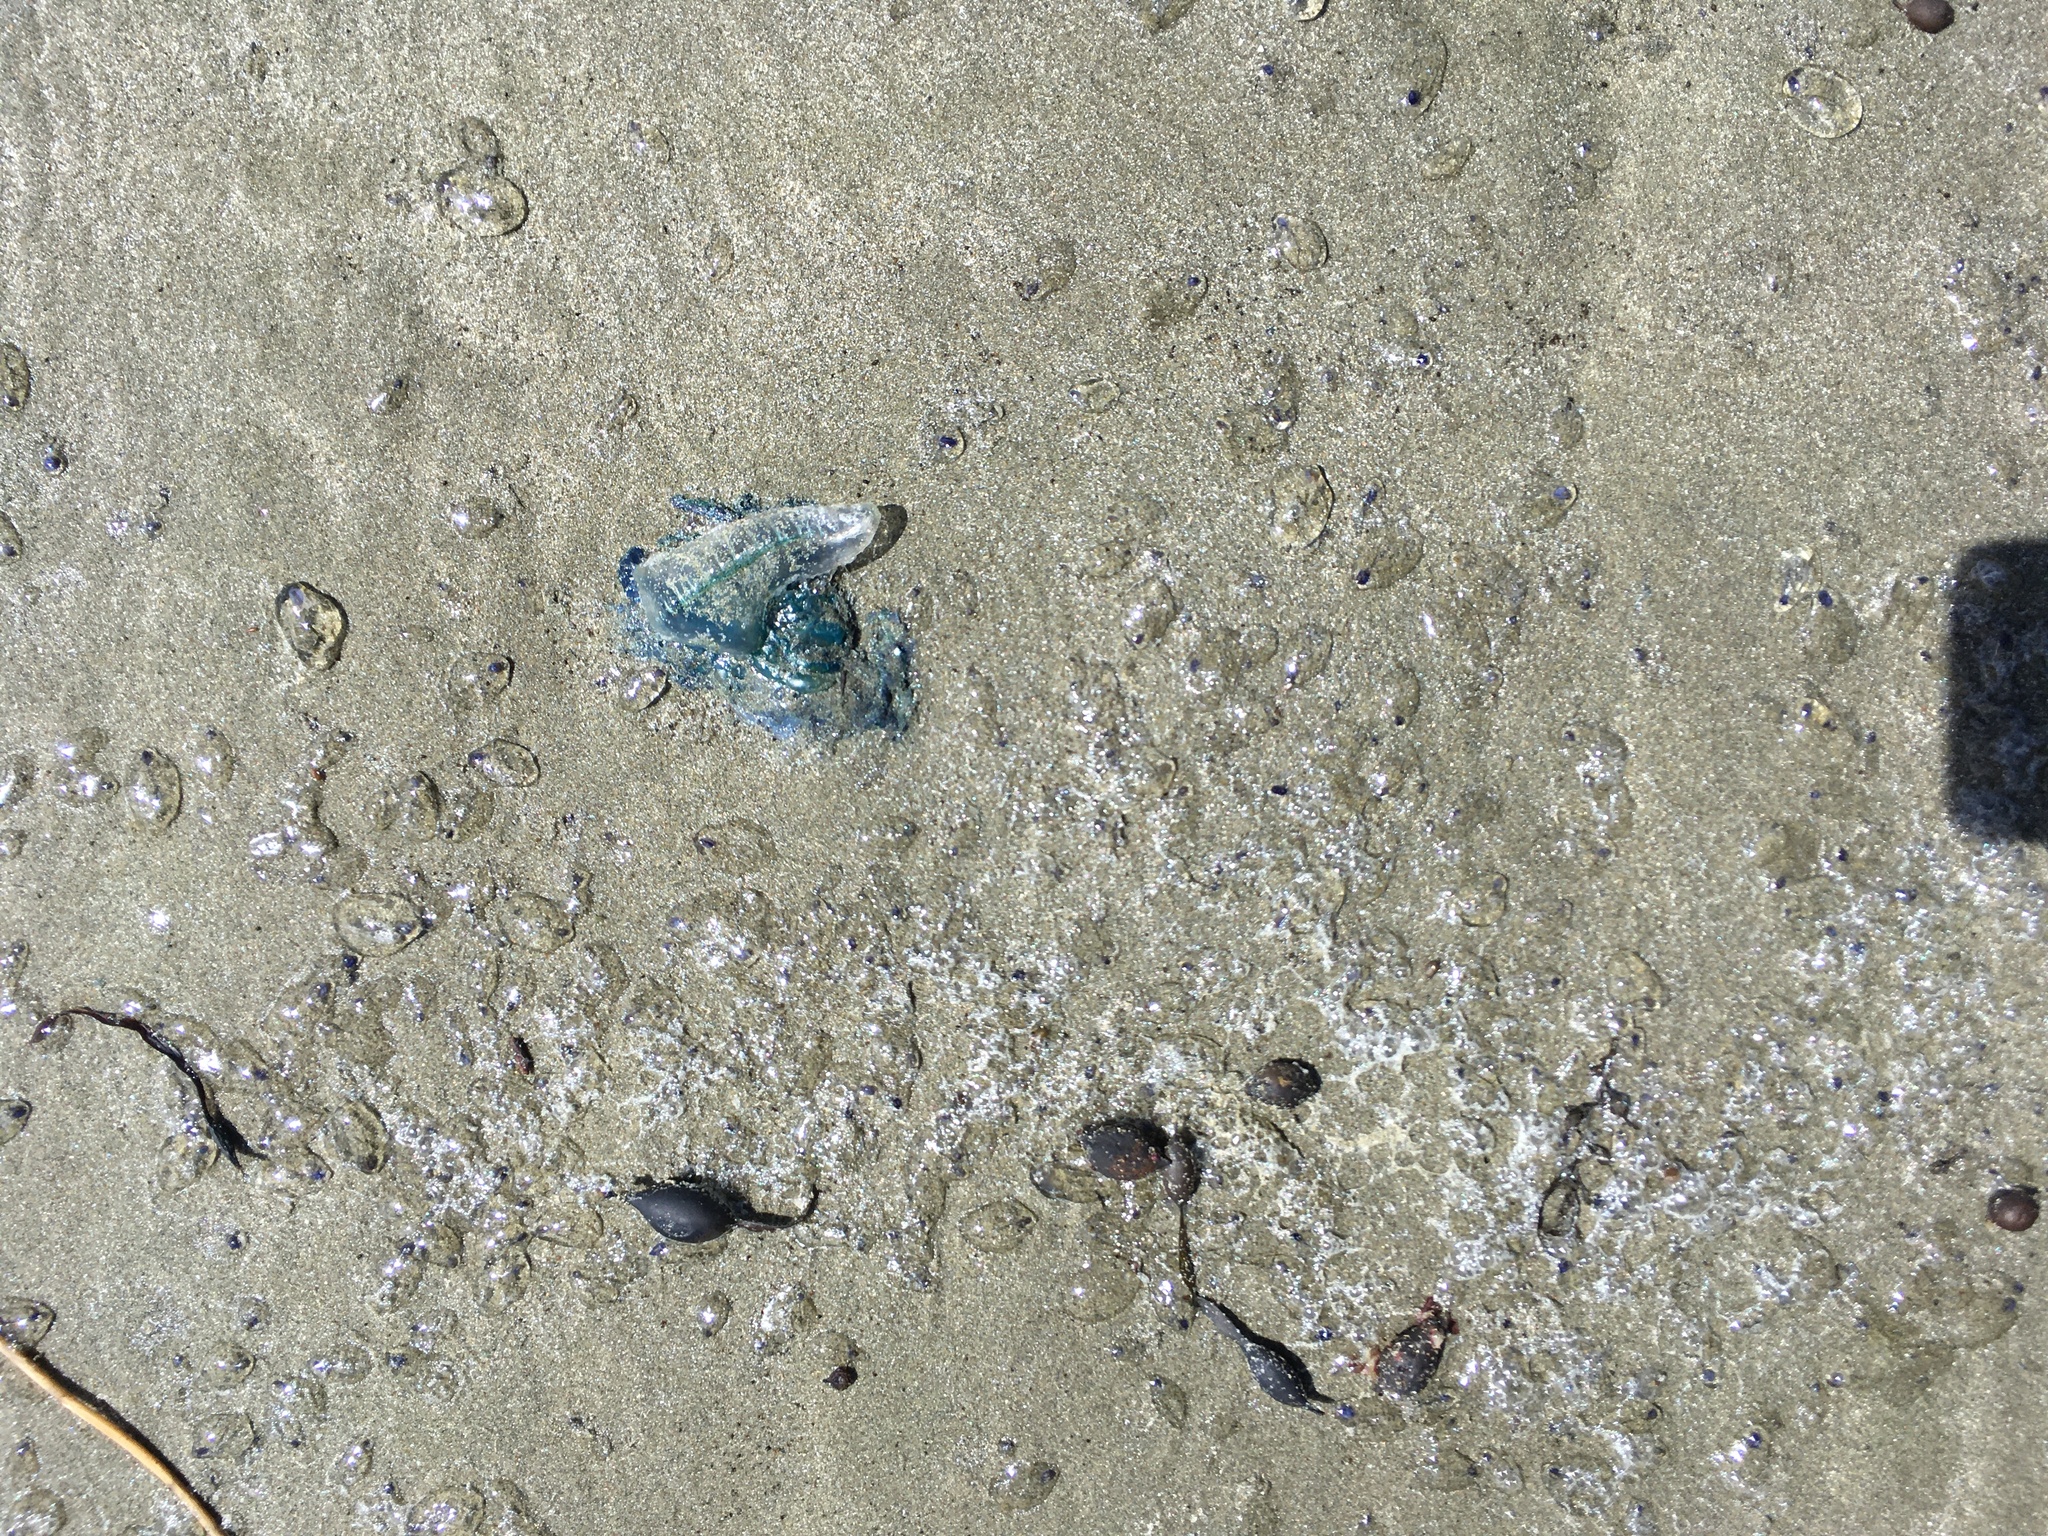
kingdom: Animalia
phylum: Cnidaria
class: Hydrozoa
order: Siphonophorae
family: Physaliidae
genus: Physalia
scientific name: Physalia physalis
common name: Portuguese man-of-war
